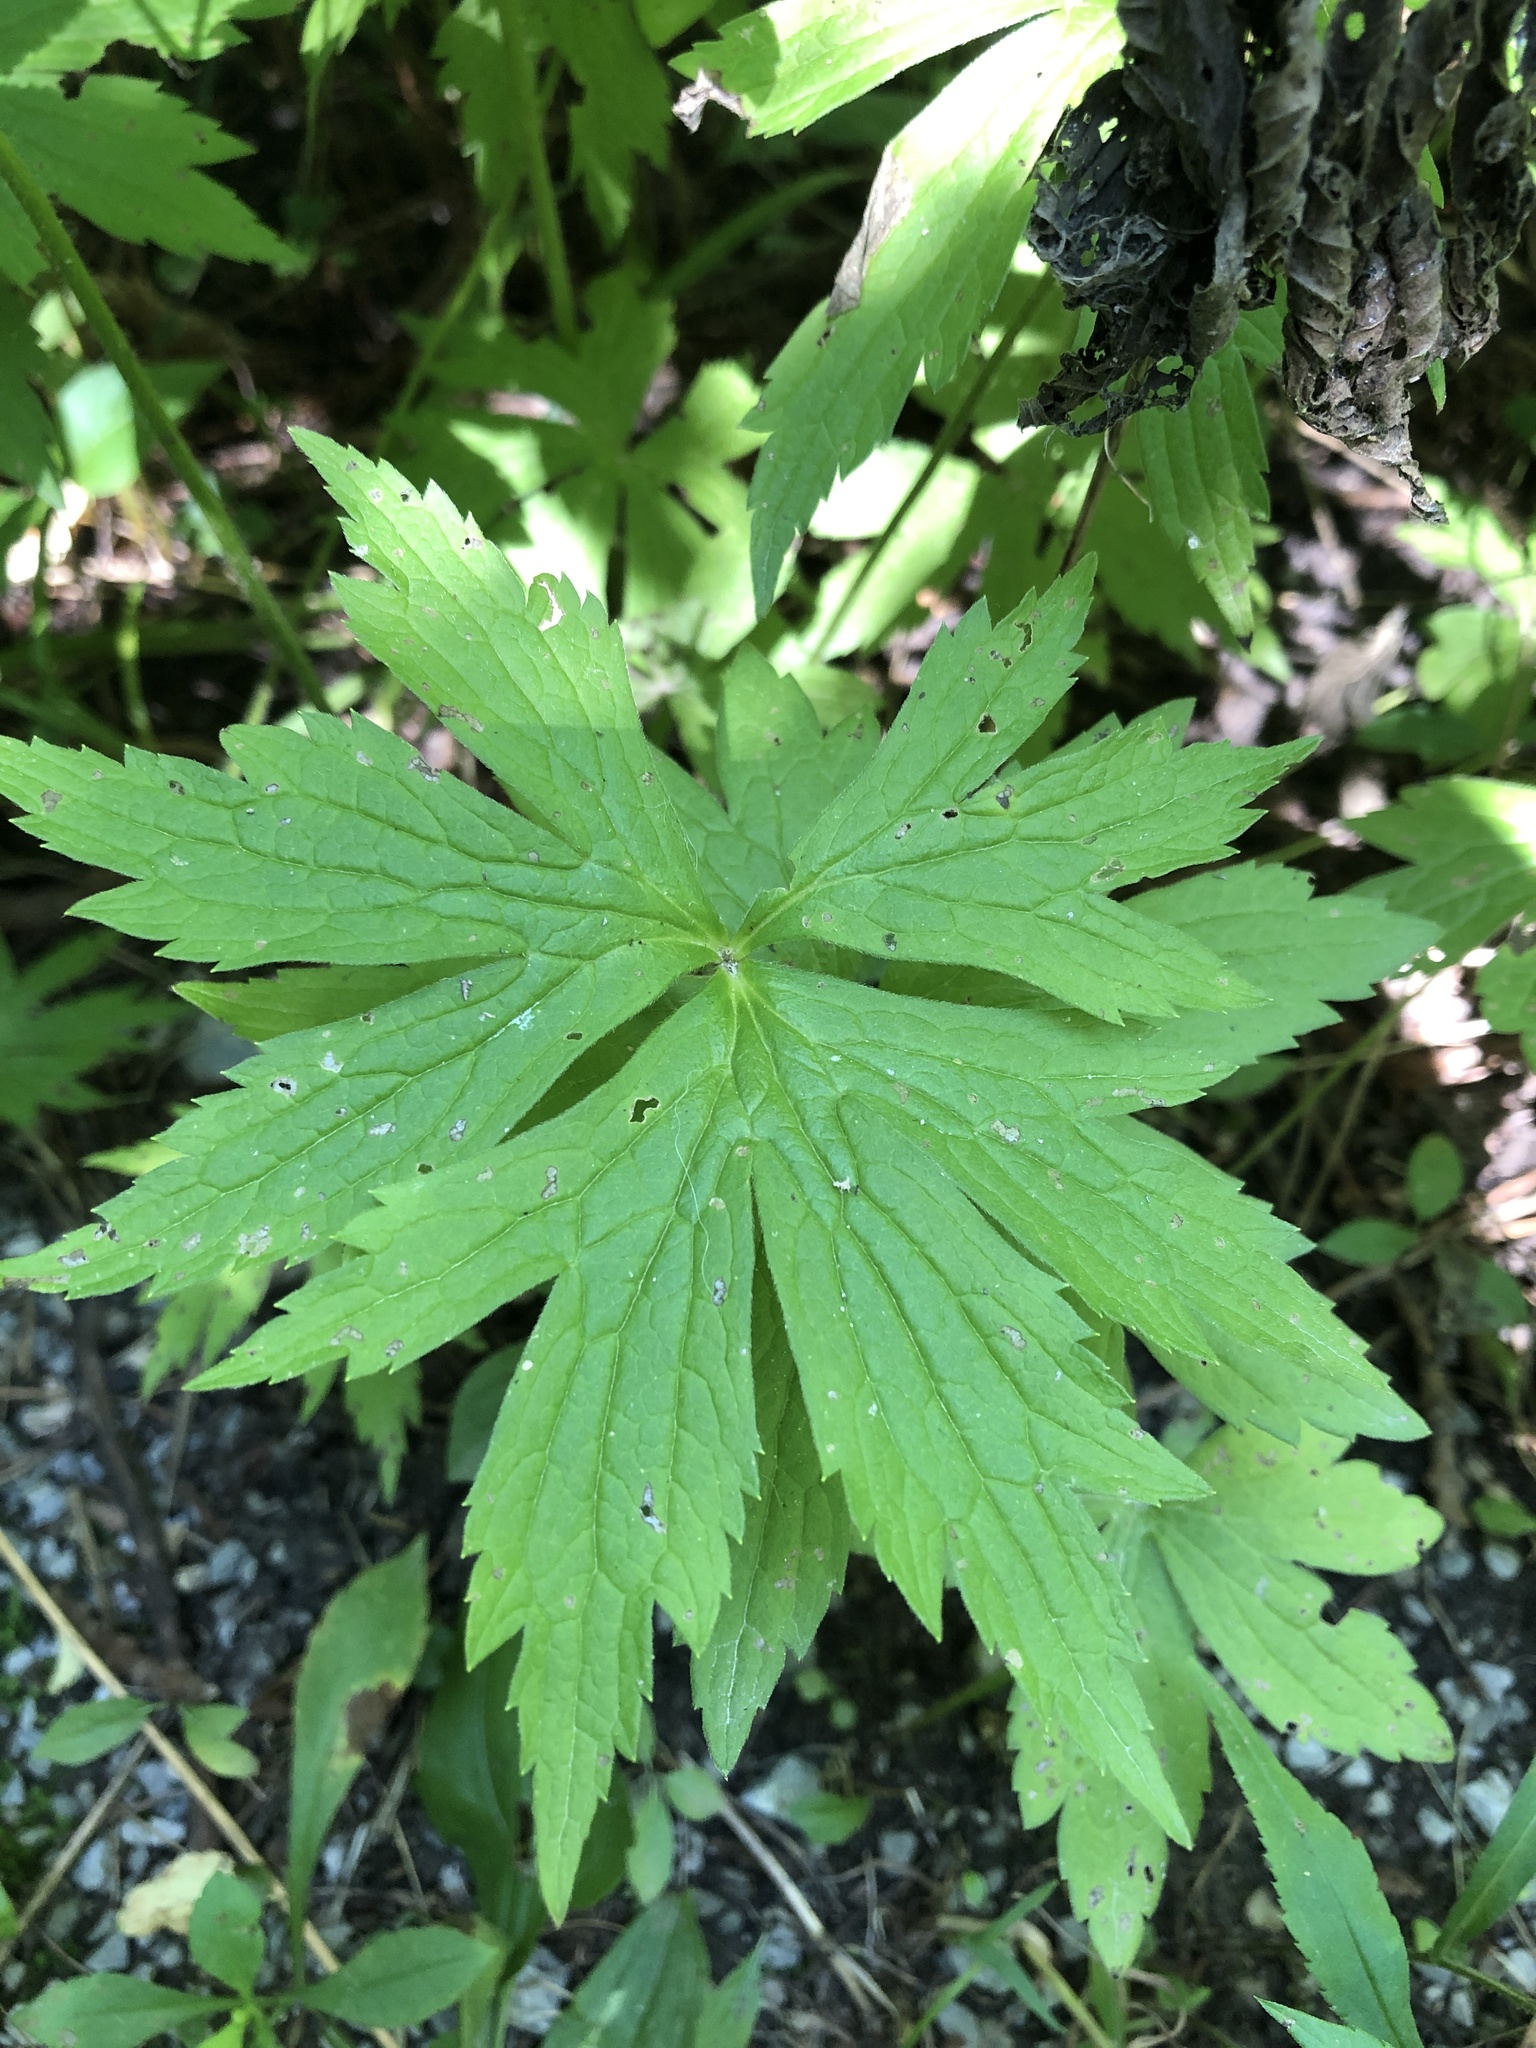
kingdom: Plantae
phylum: Tracheophyta
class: Magnoliopsida
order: Ranunculales
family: Ranunculaceae
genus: Anemonastrum
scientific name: Anemonastrum canadense
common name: Canada anemone
